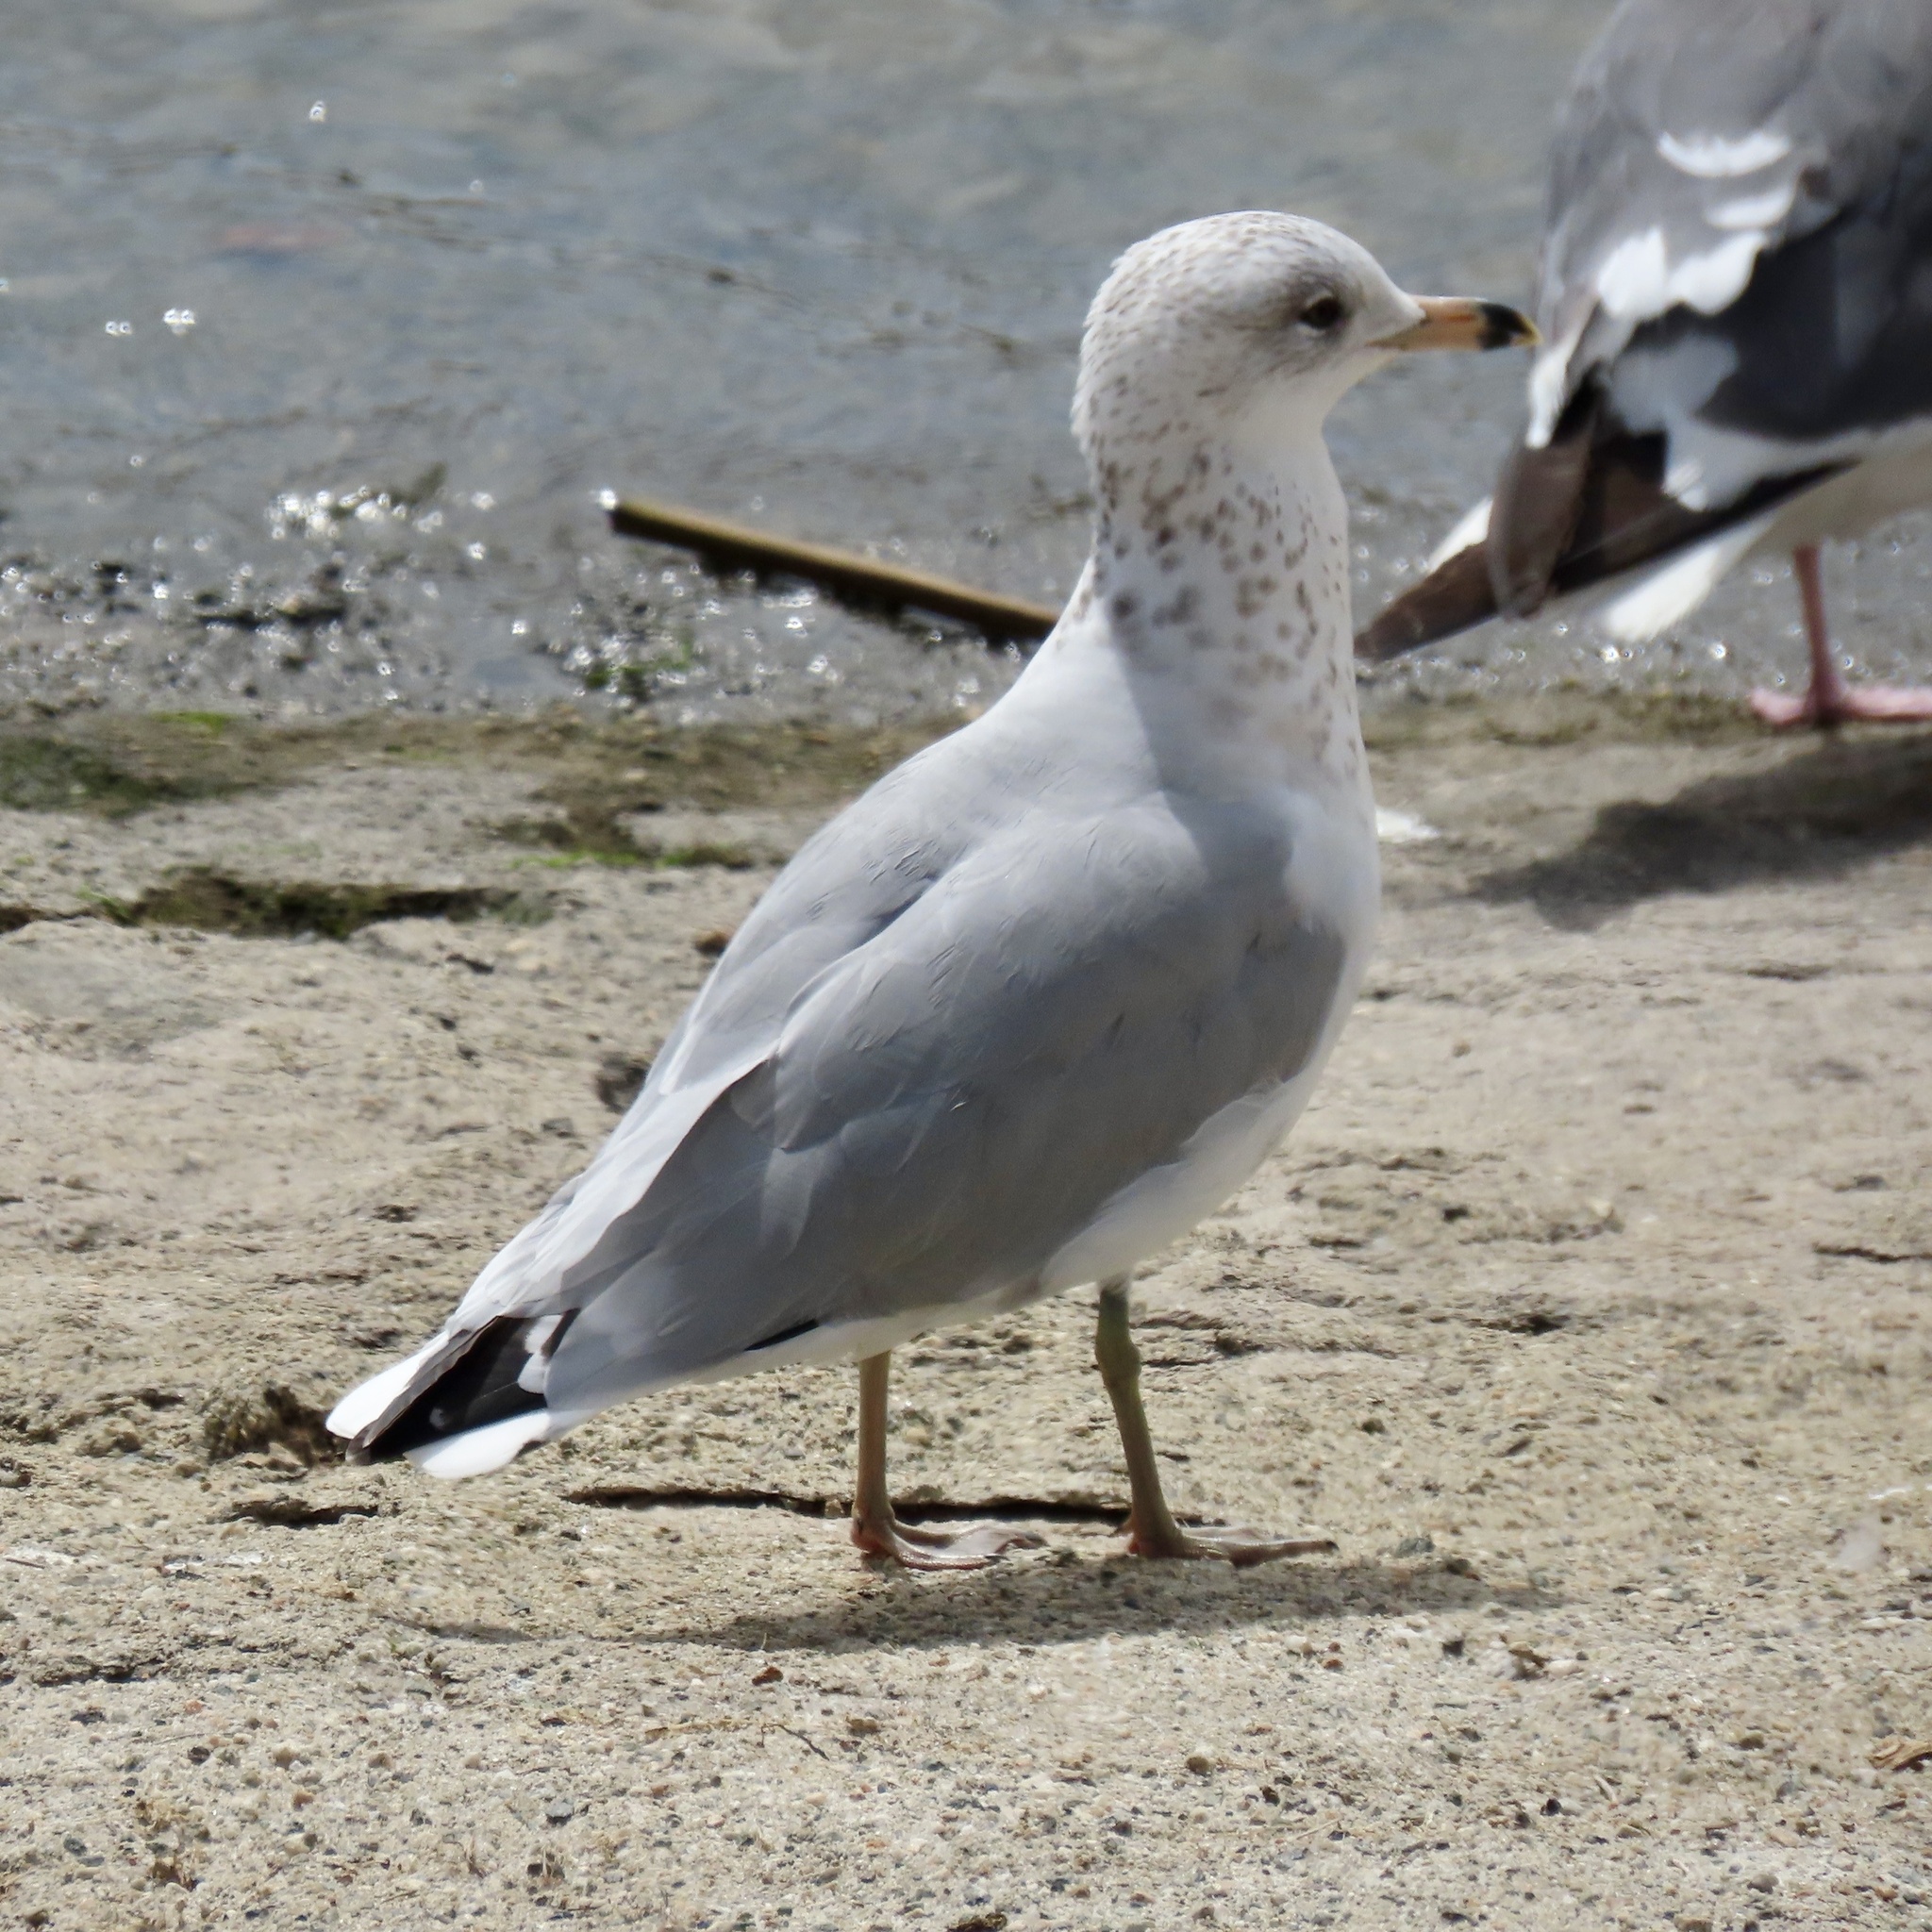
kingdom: Animalia
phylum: Chordata
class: Aves
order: Charadriiformes
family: Laridae
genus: Larus
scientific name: Larus delawarensis
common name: Ring-billed gull
